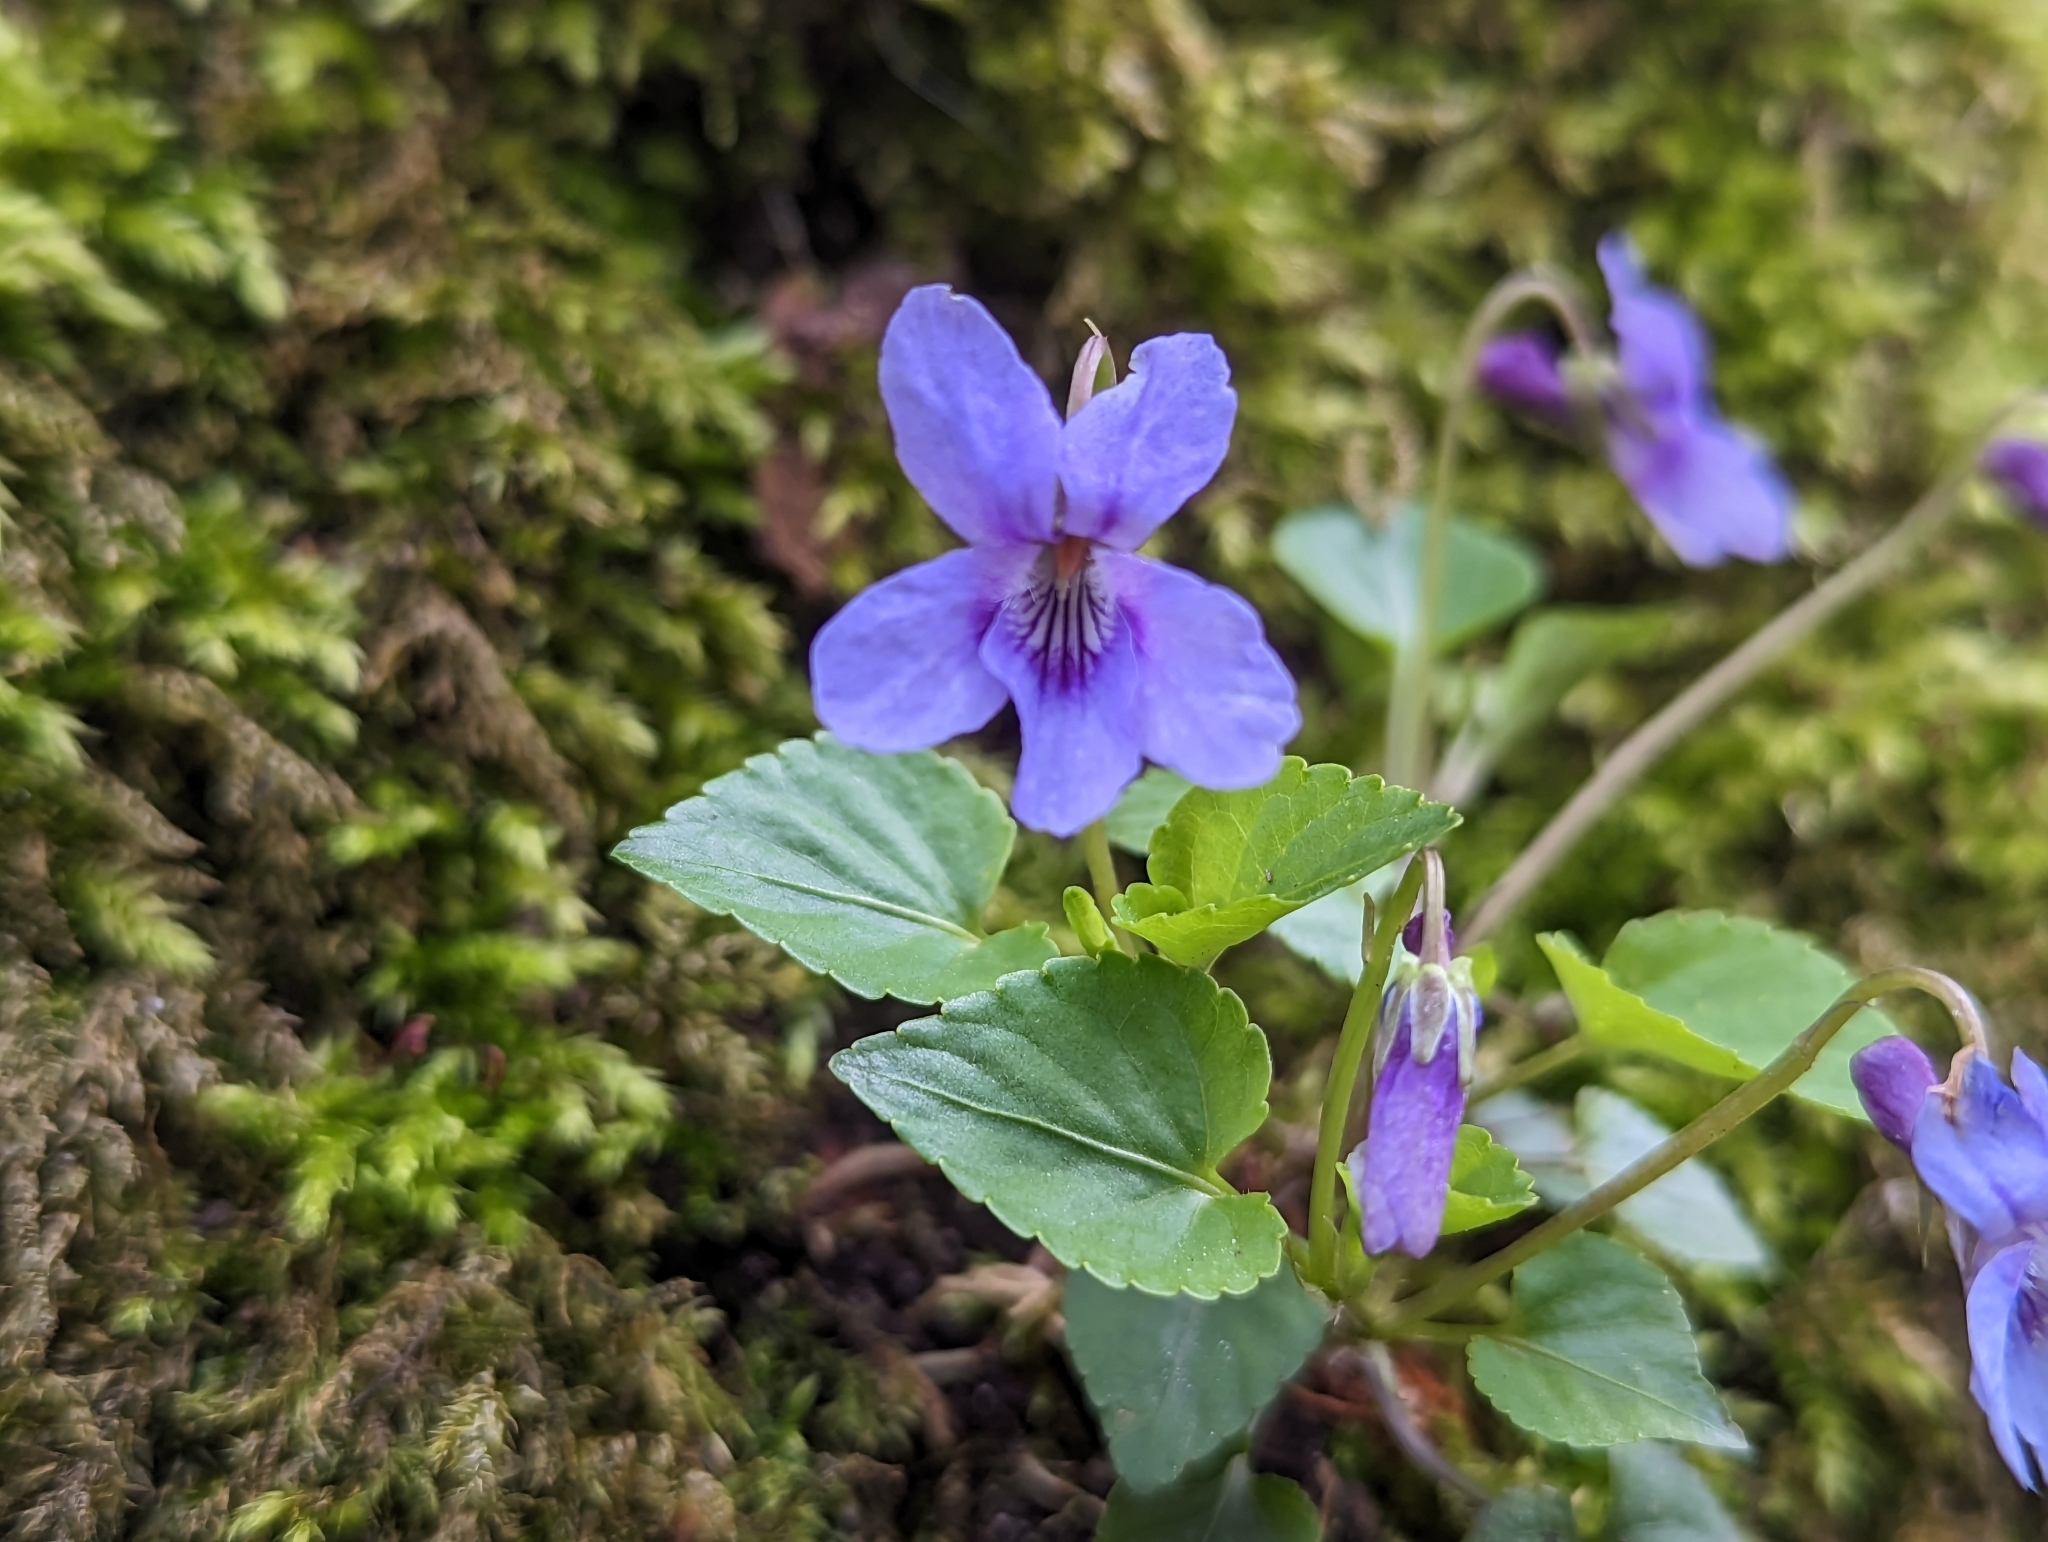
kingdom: Plantae
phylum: Tracheophyta
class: Magnoliopsida
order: Malpighiales
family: Violaceae
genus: Viola
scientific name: Viola reichenbachiana
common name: Early dog-violet
